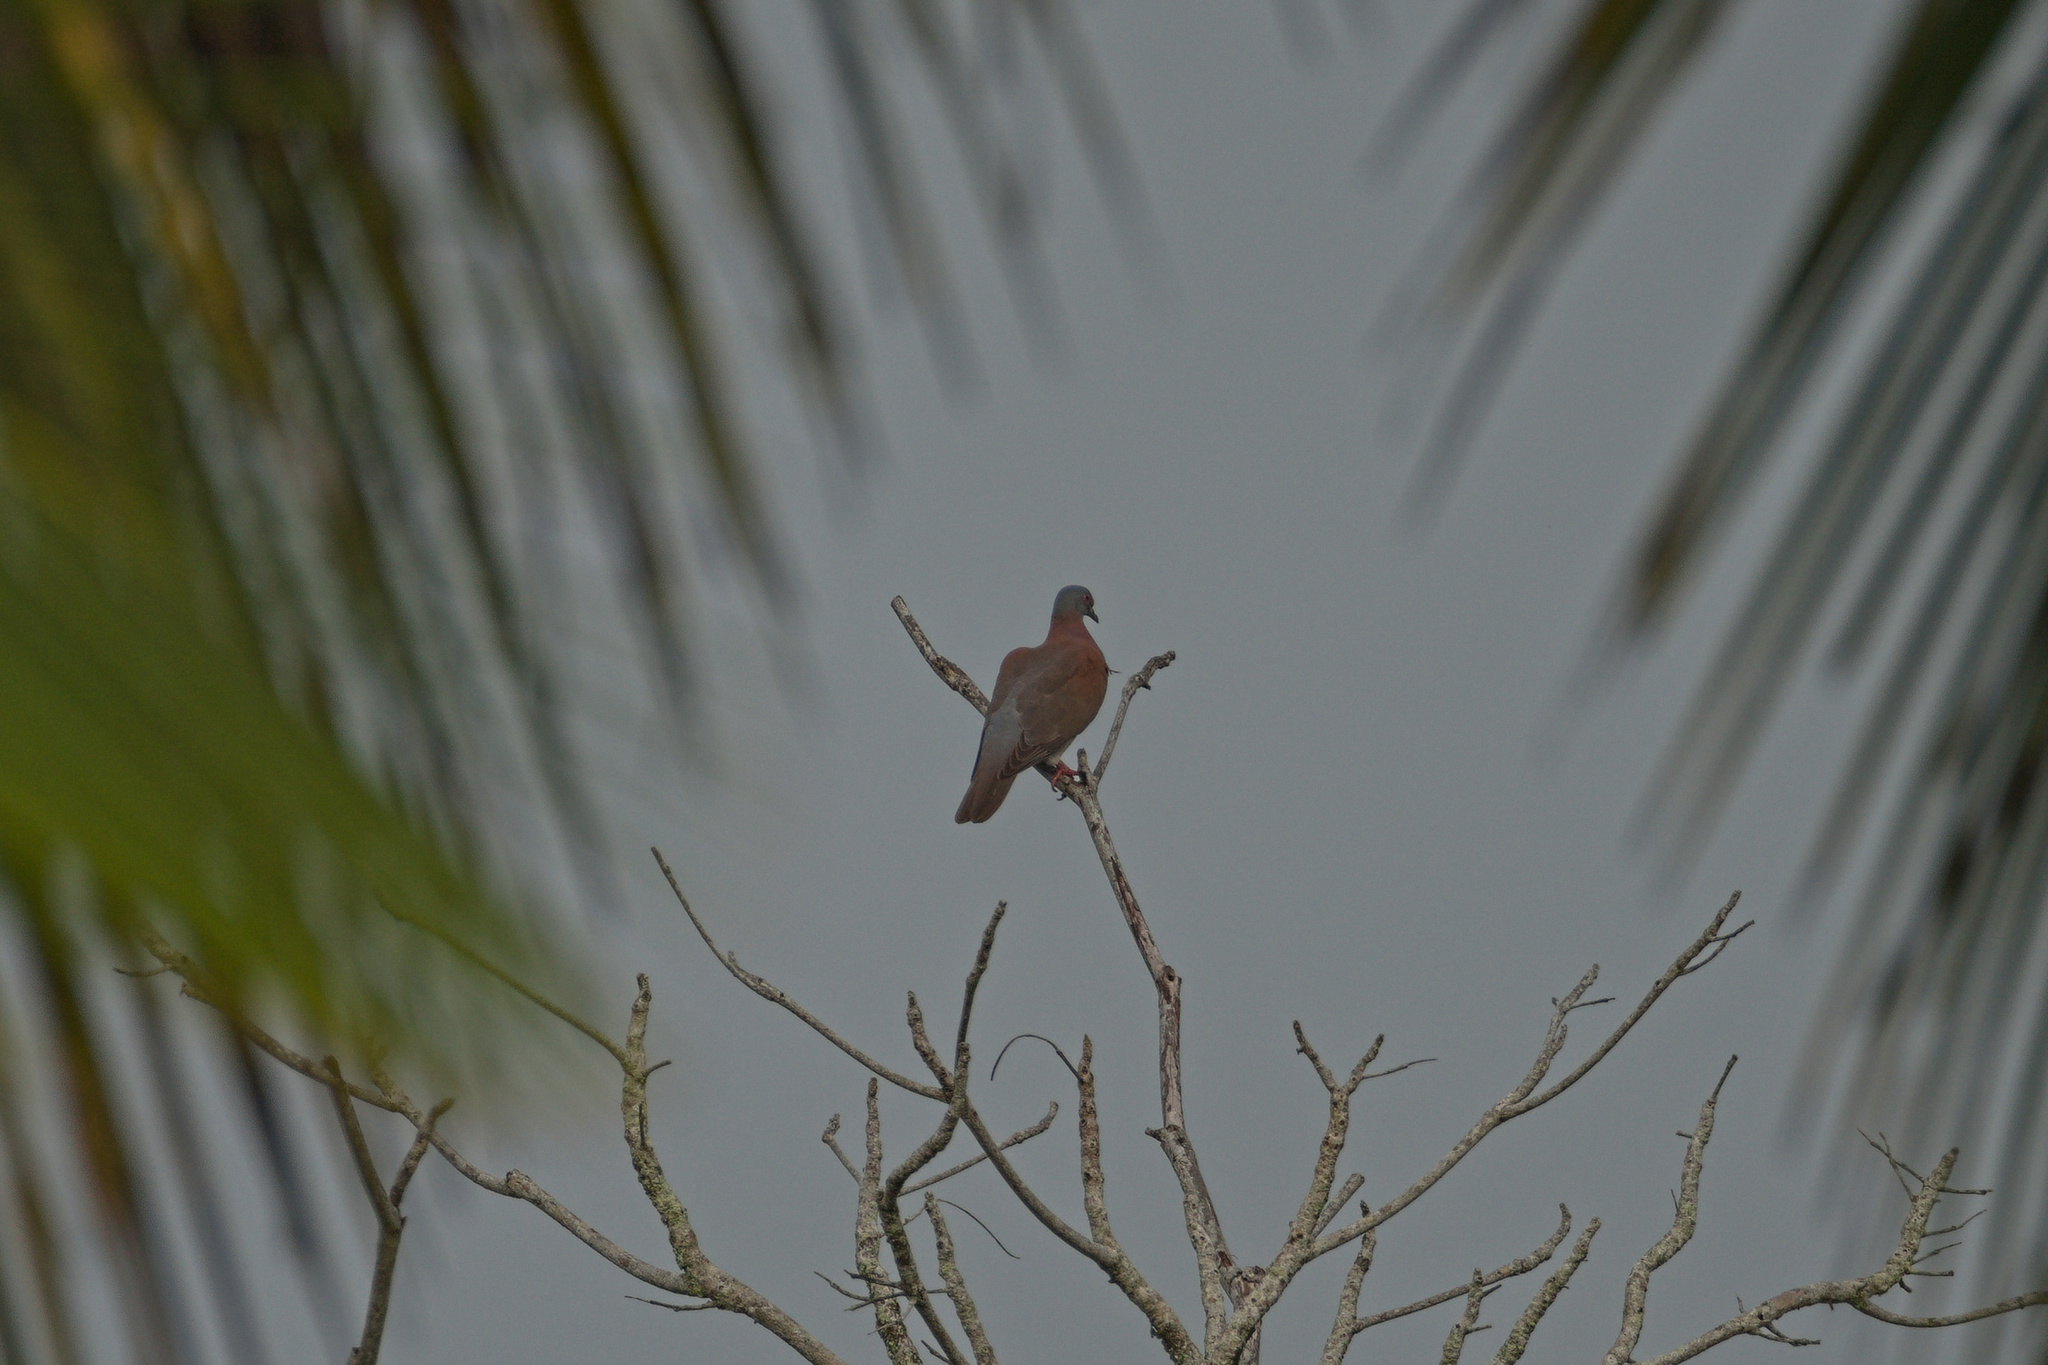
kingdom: Animalia
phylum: Chordata
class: Aves
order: Columbiformes
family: Columbidae
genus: Patagioenas
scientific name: Patagioenas cayennensis
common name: Pale-vented pigeon
